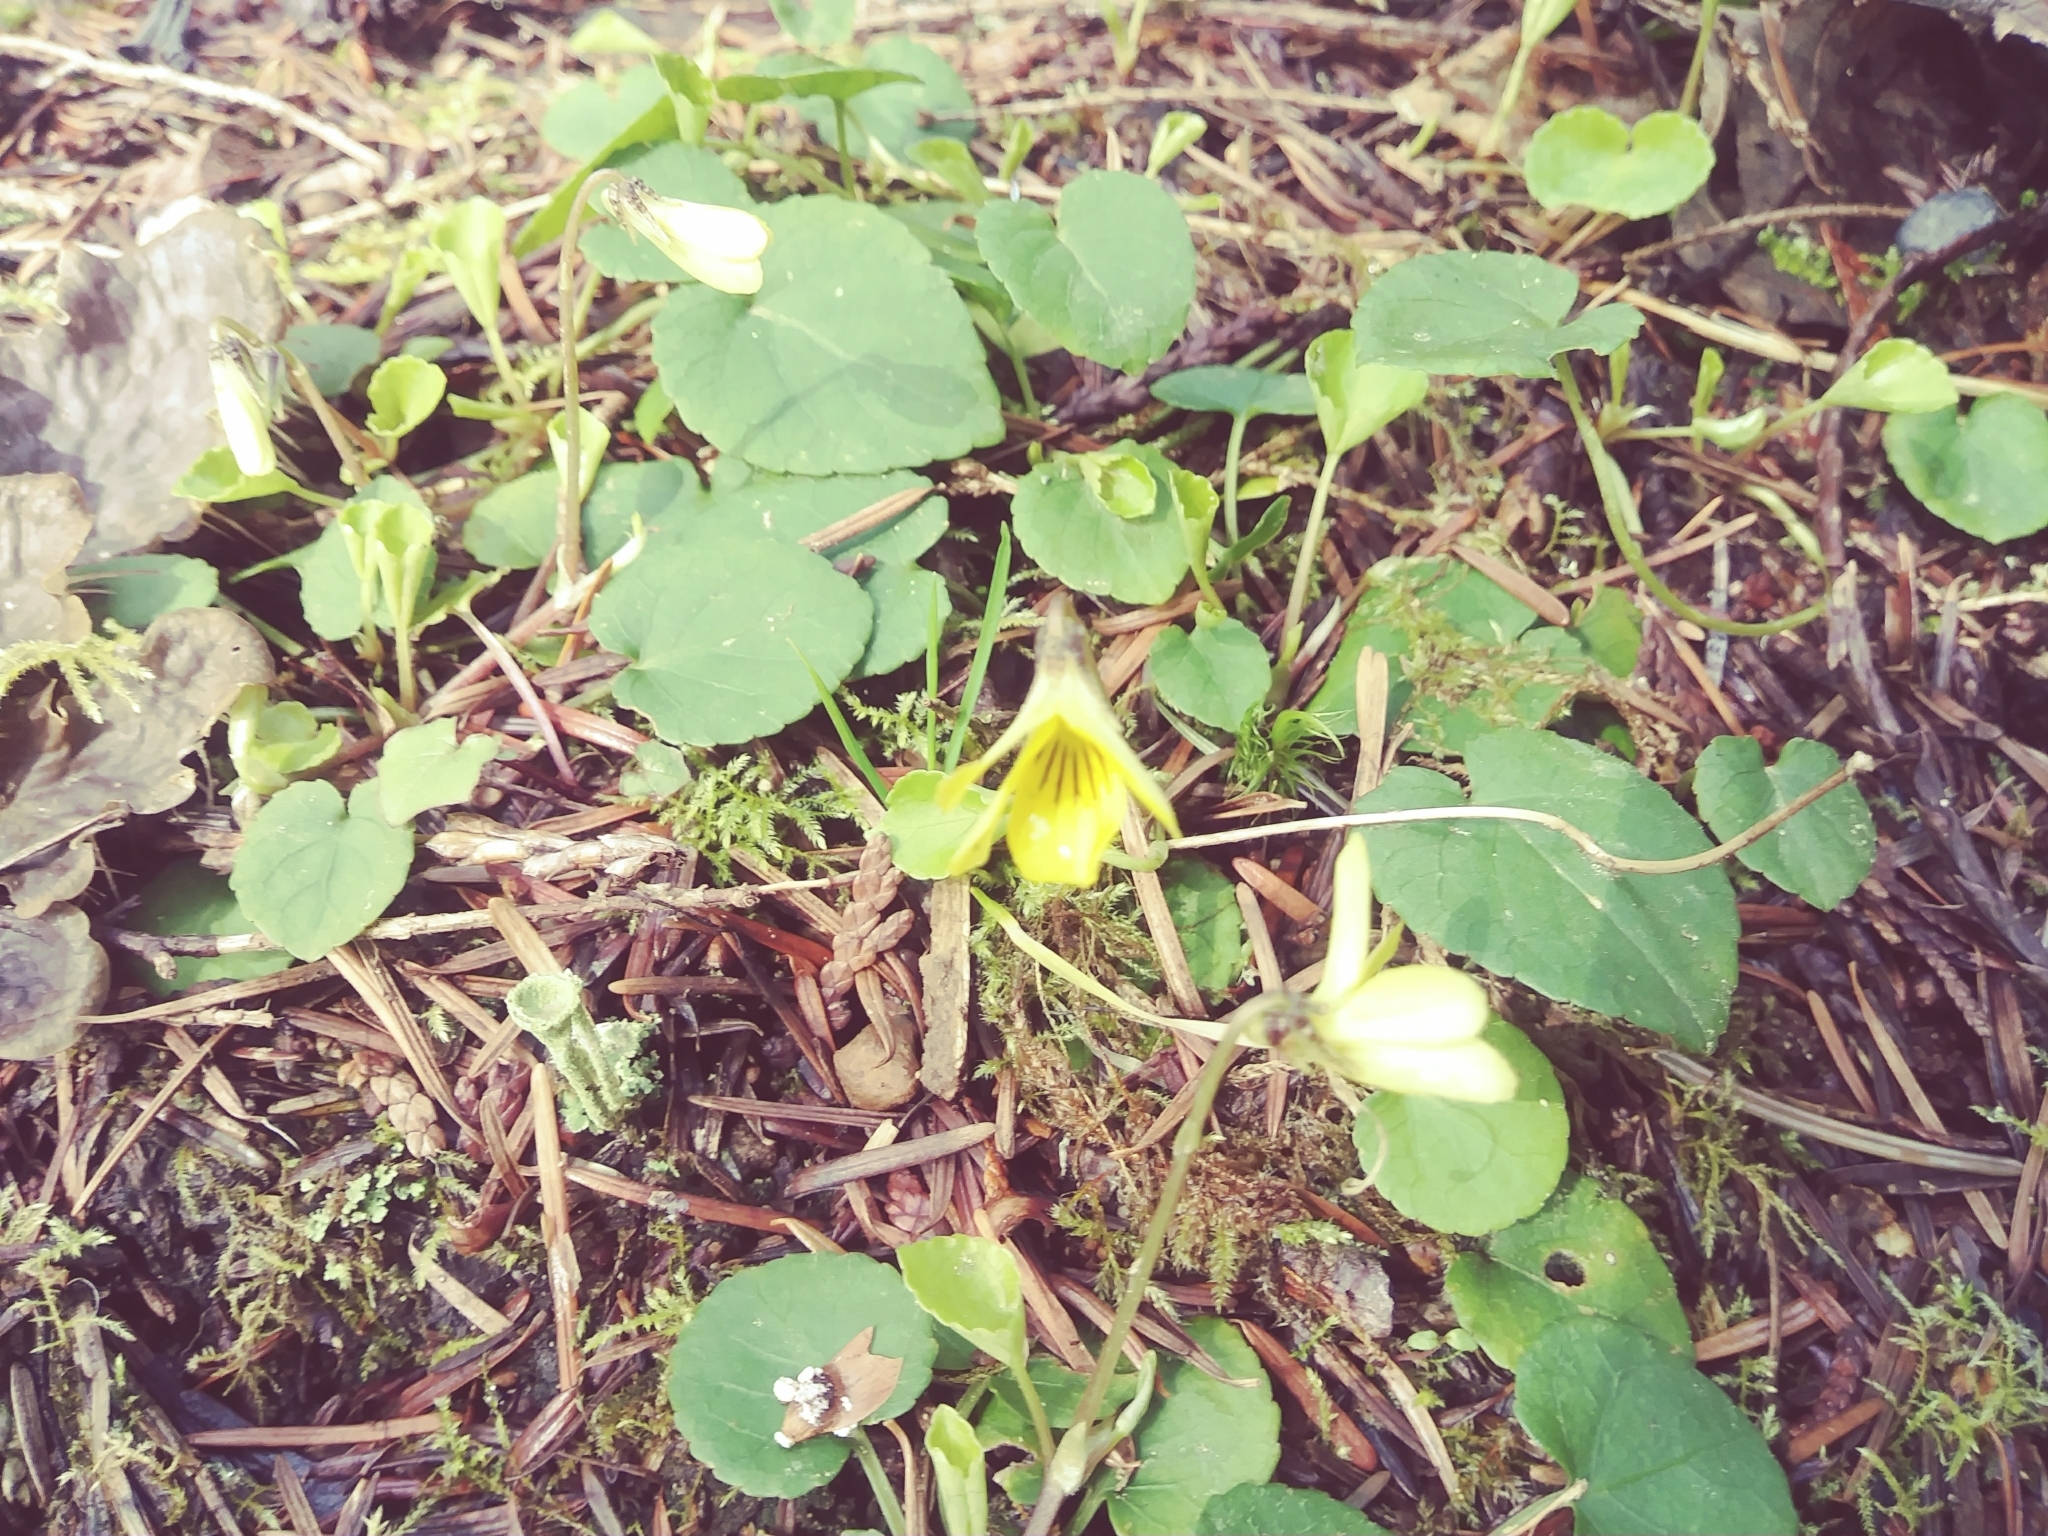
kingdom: Plantae
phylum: Tracheophyta
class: Magnoliopsida
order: Malpighiales
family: Violaceae
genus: Viola
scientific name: Viola sempervirens
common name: Evergreen violet
